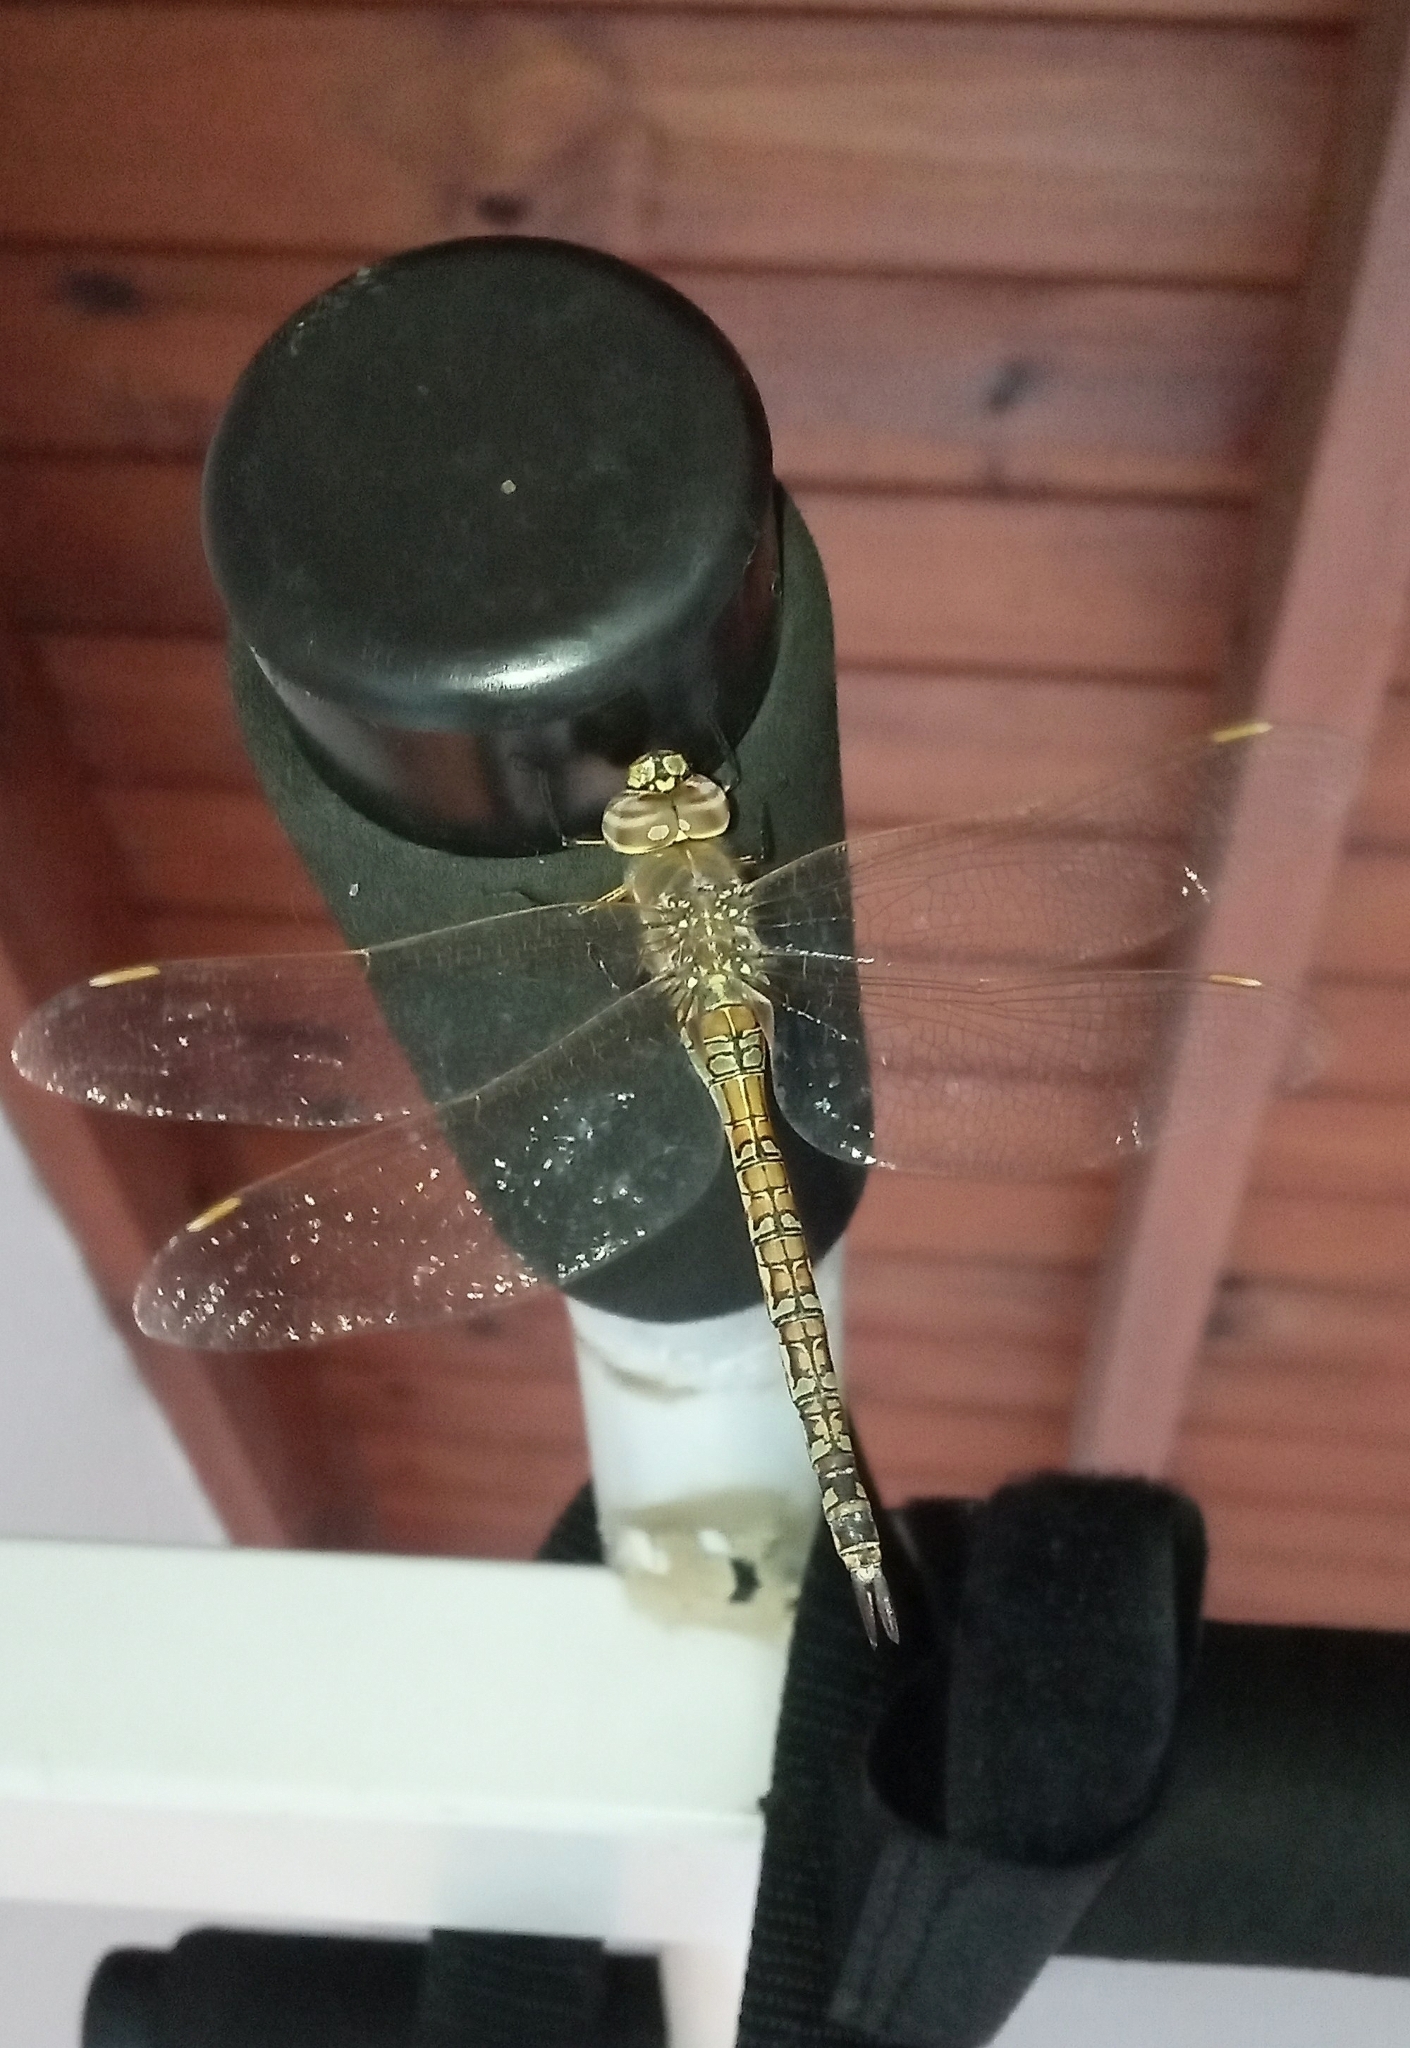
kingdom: Animalia
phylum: Arthropoda
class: Insecta
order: Odonata
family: Aeshnidae
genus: Rhionaeschna
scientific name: Rhionaeschna absoluta
